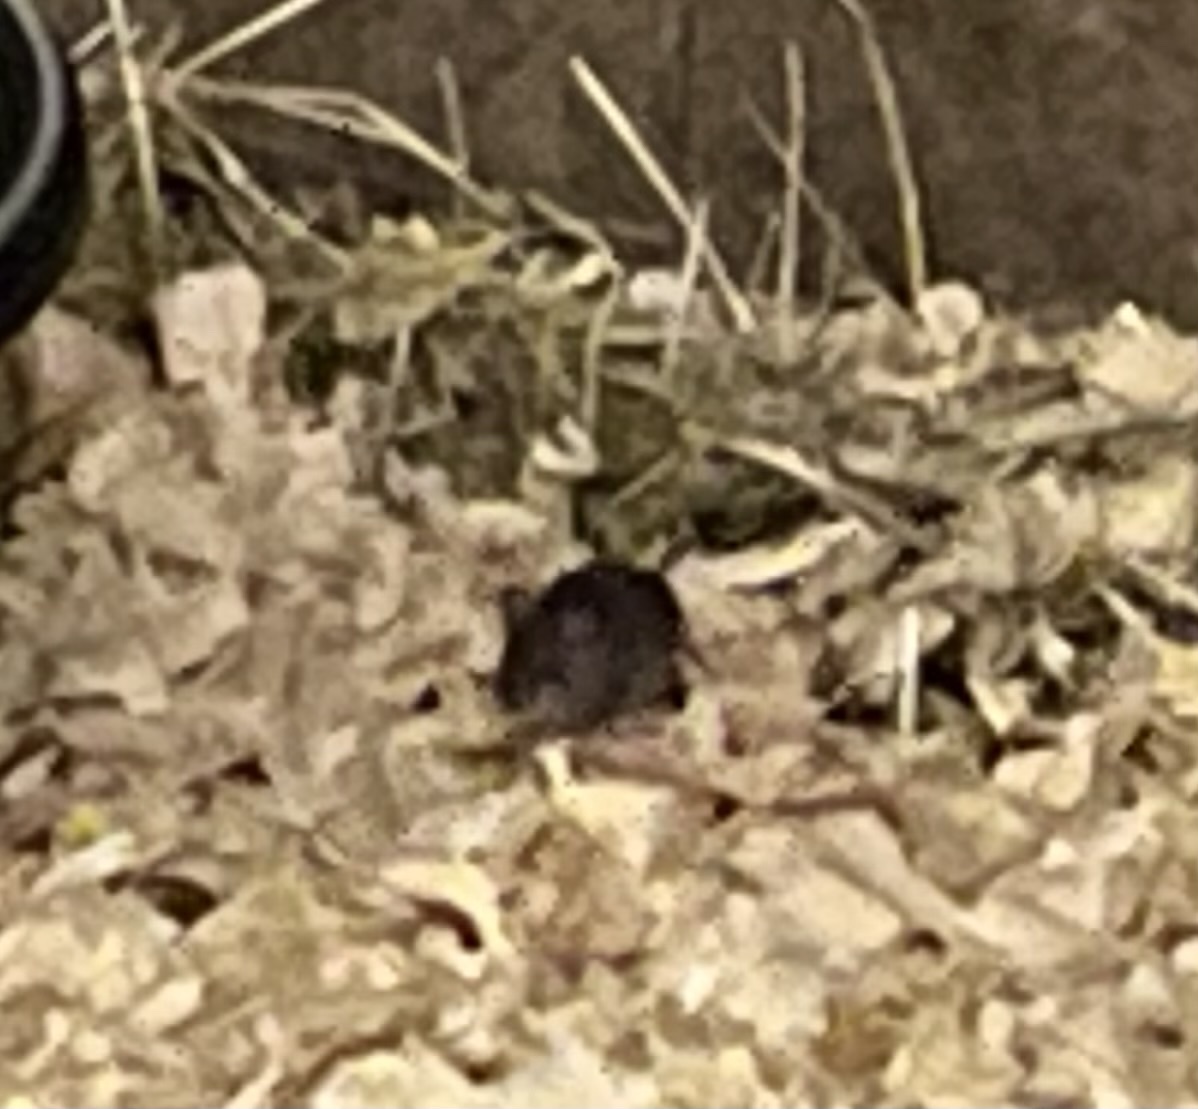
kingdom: Animalia
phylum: Chordata
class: Mammalia
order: Rodentia
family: Muridae
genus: Mus
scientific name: Mus musculus
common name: House mouse
